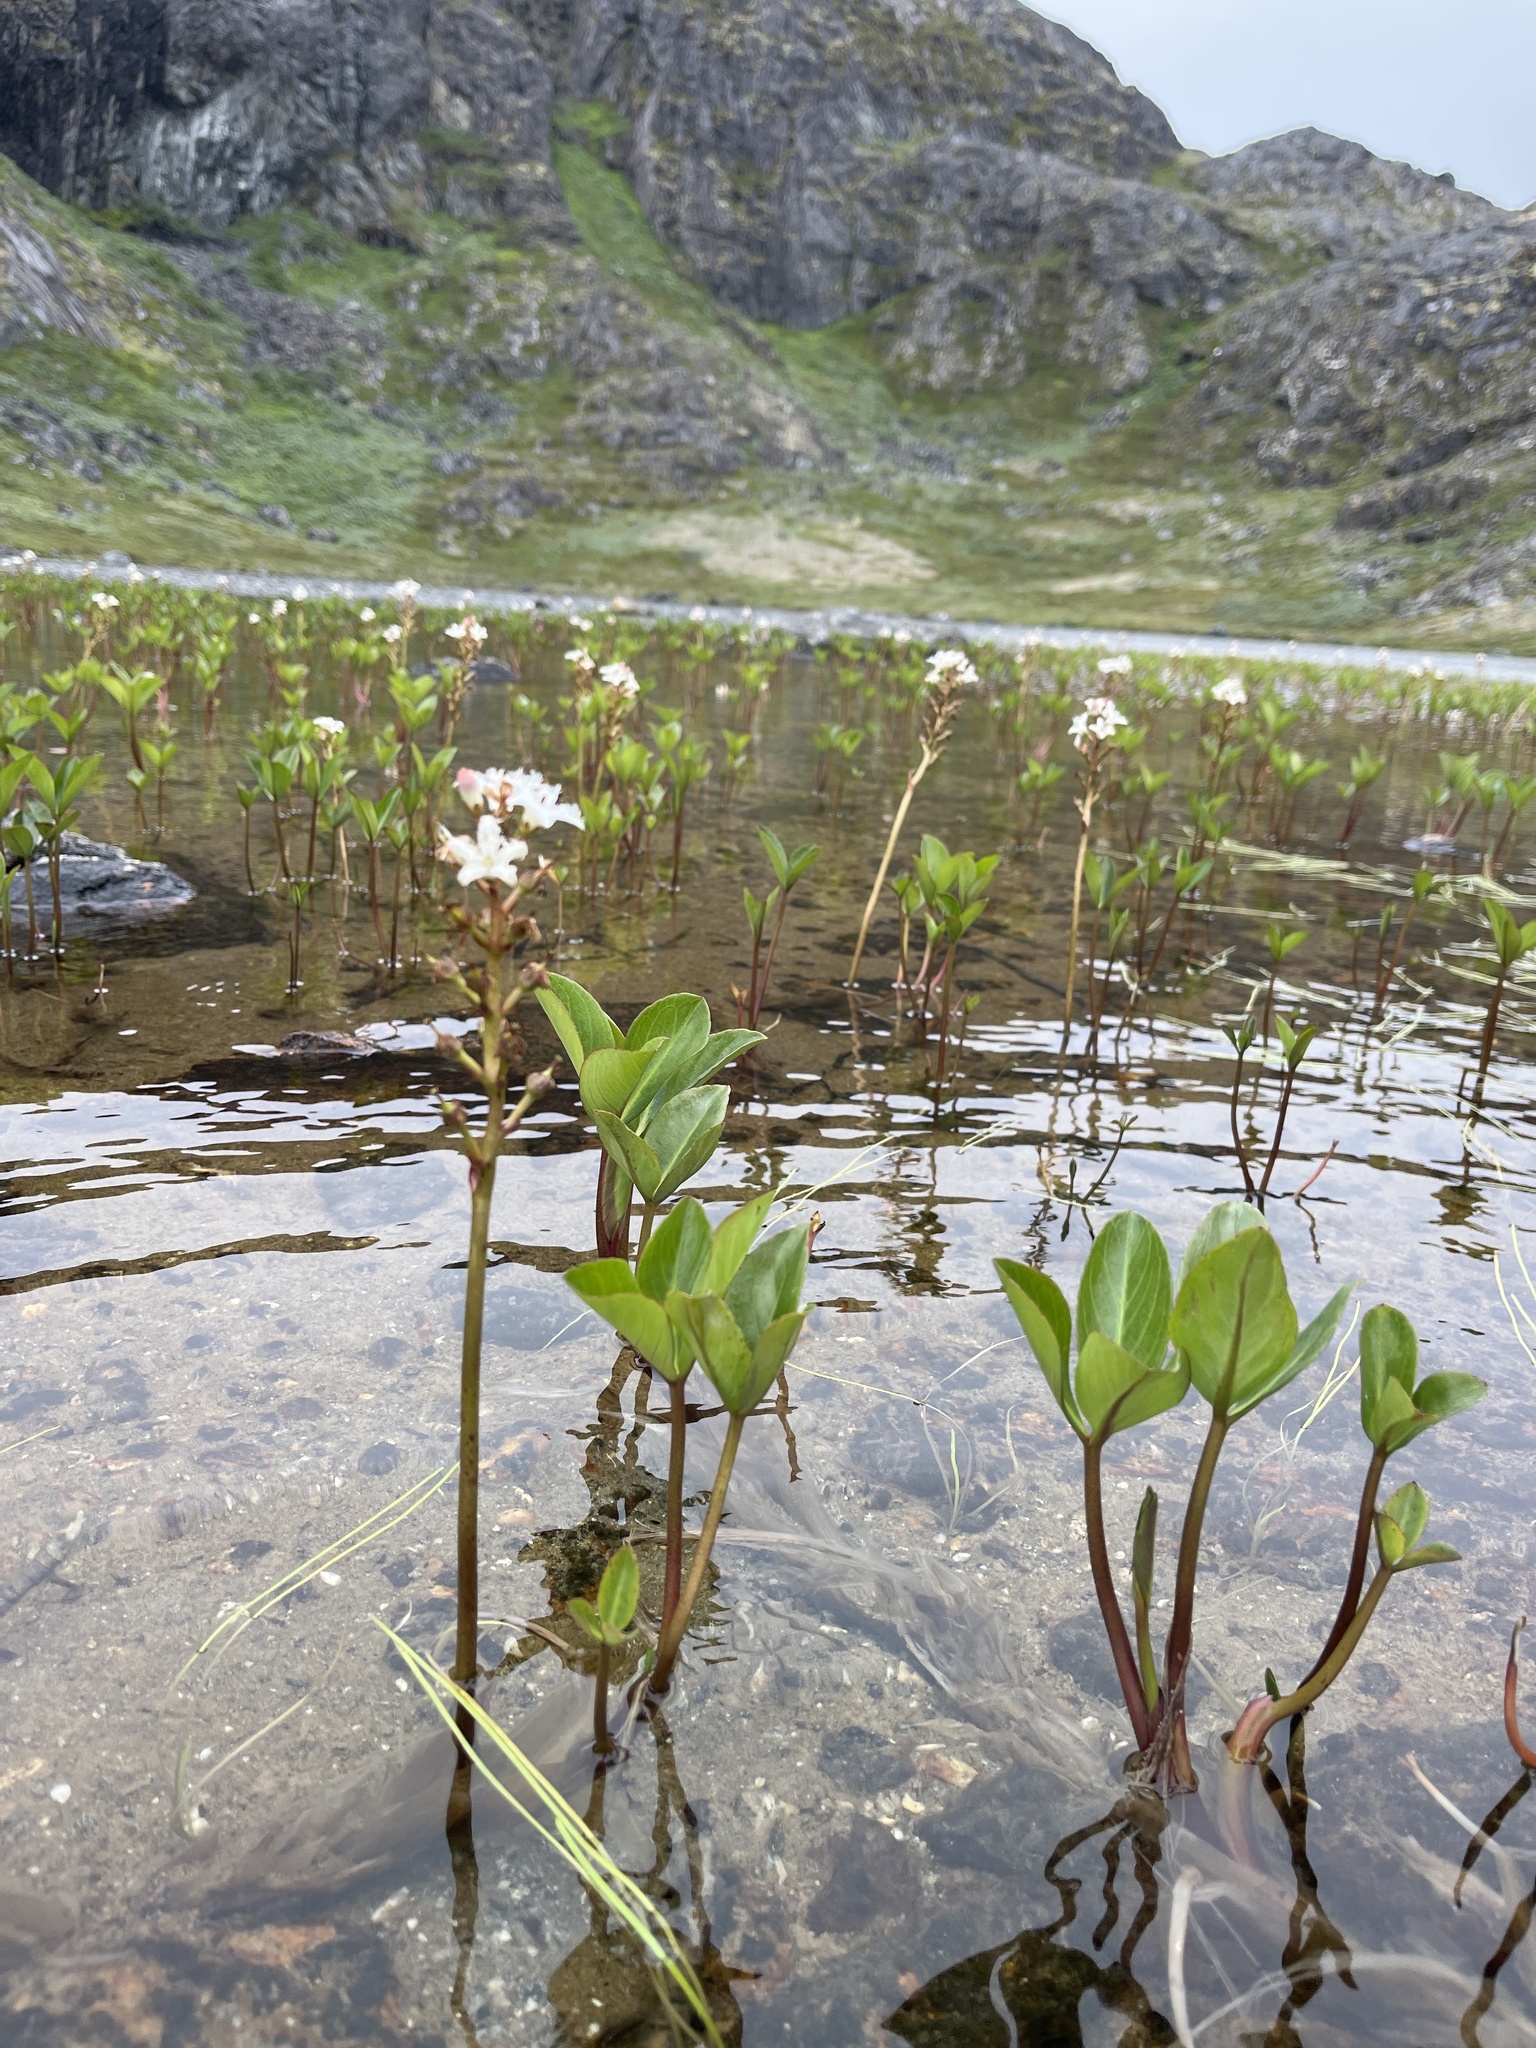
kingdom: Plantae
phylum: Tracheophyta
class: Magnoliopsida
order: Asterales
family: Menyanthaceae
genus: Menyanthes
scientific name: Menyanthes trifoliata
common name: Bogbean
